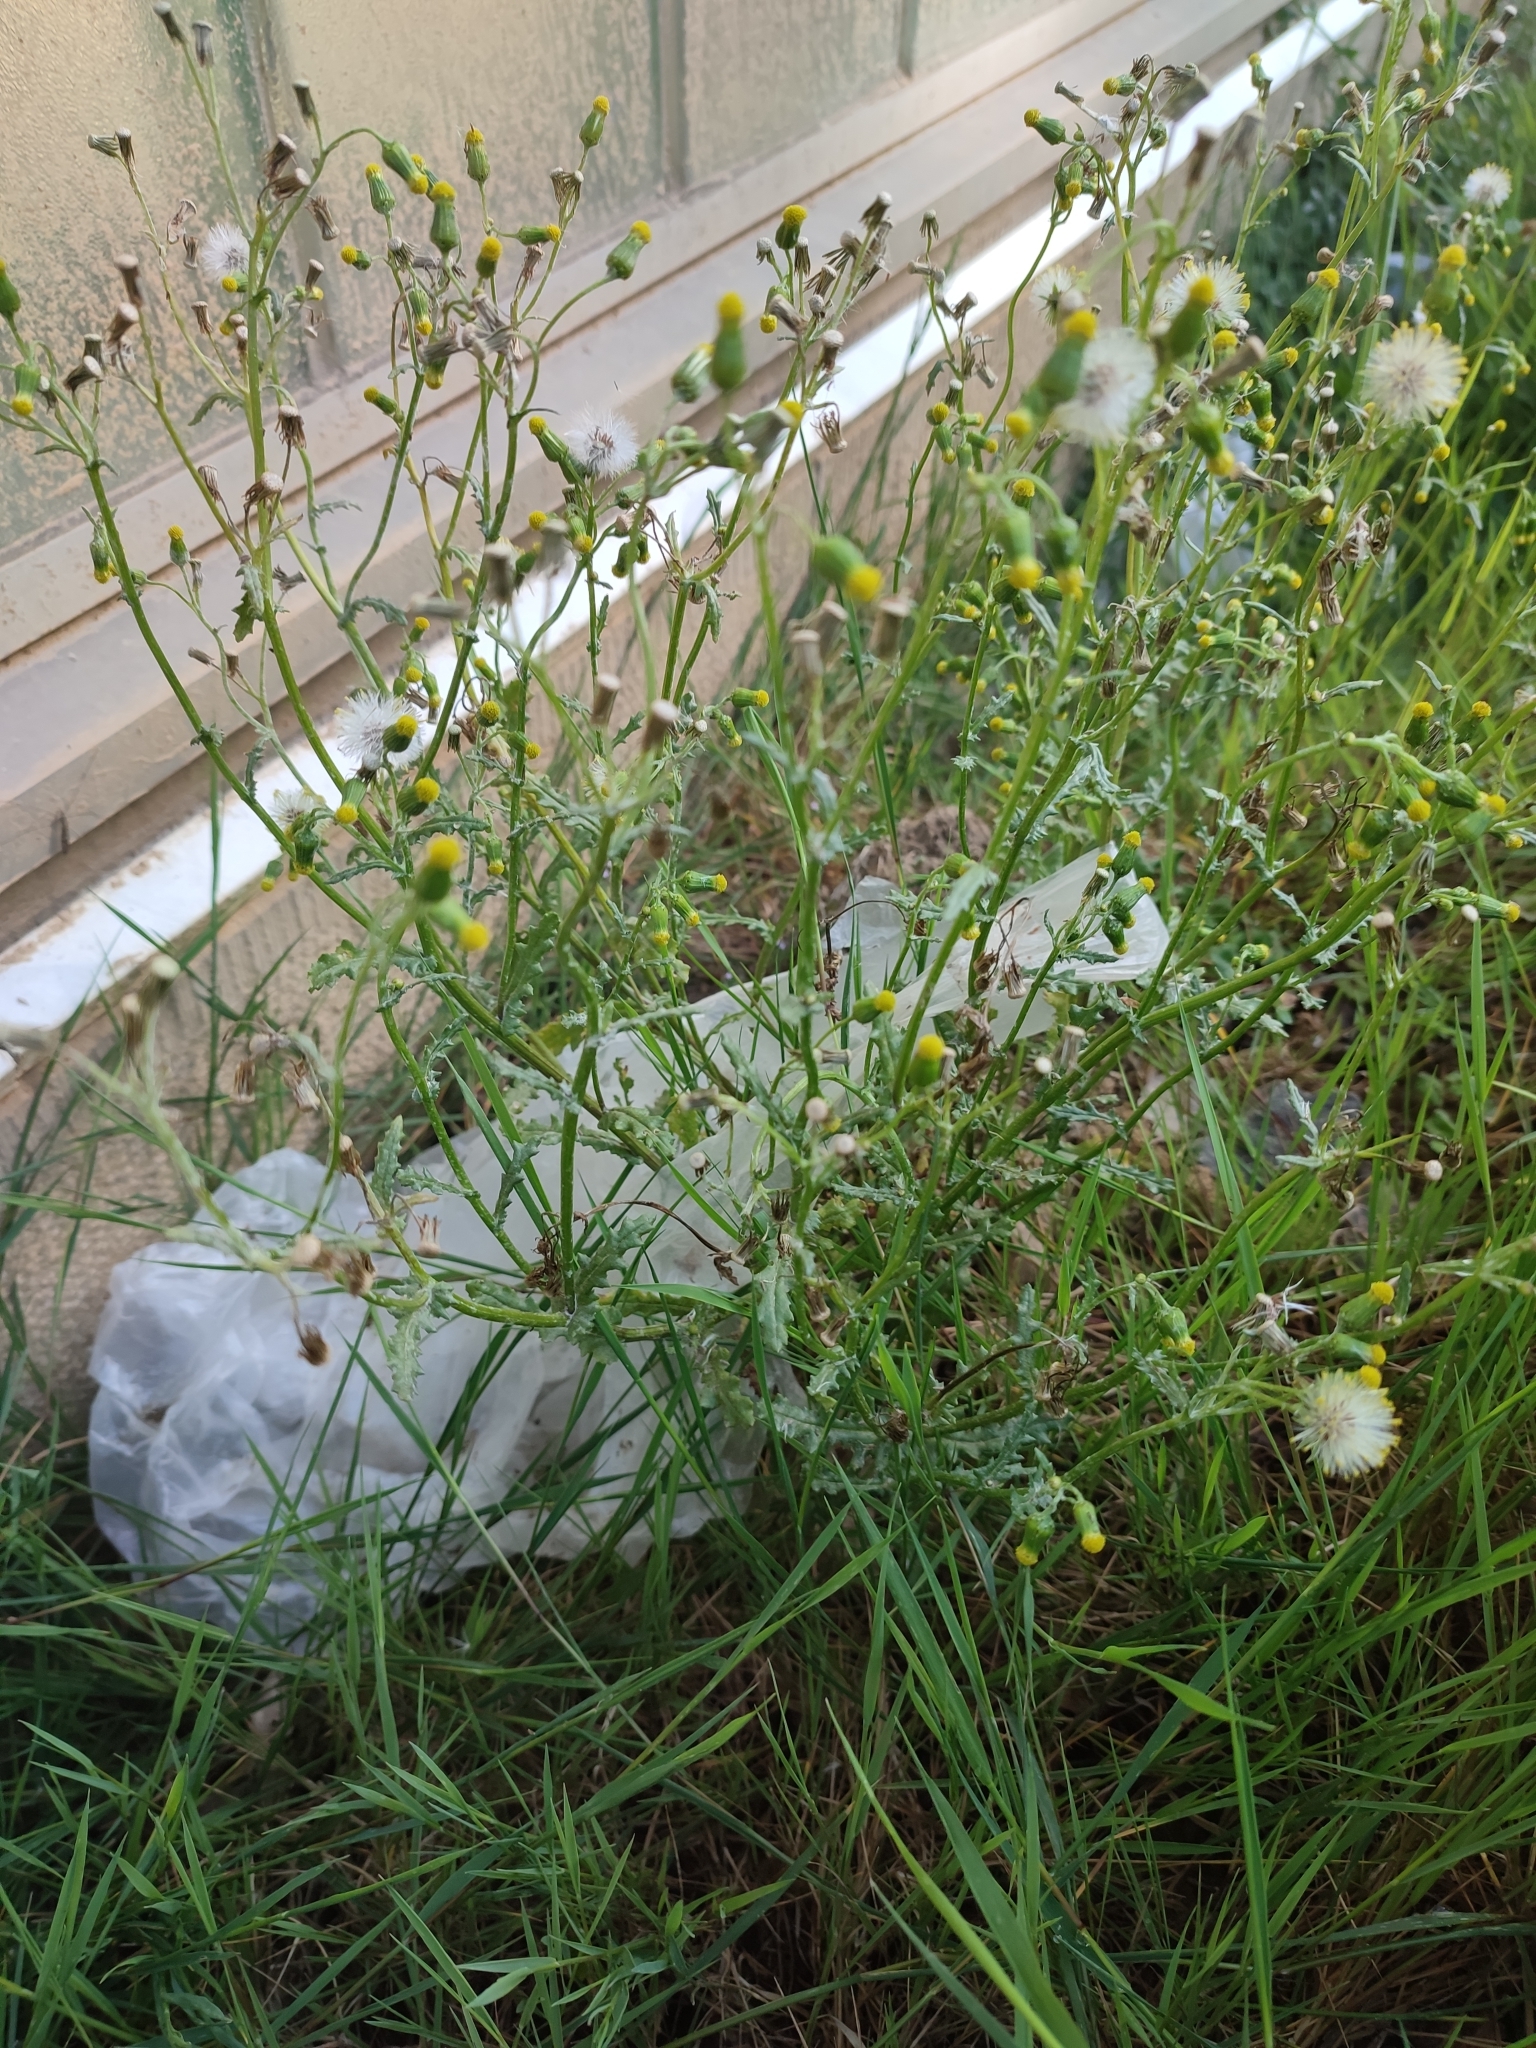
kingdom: Plantae
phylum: Tracheophyta
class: Magnoliopsida
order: Asterales
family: Asteraceae
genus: Senecio
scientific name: Senecio vulgaris
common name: Old-man-in-the-spring
